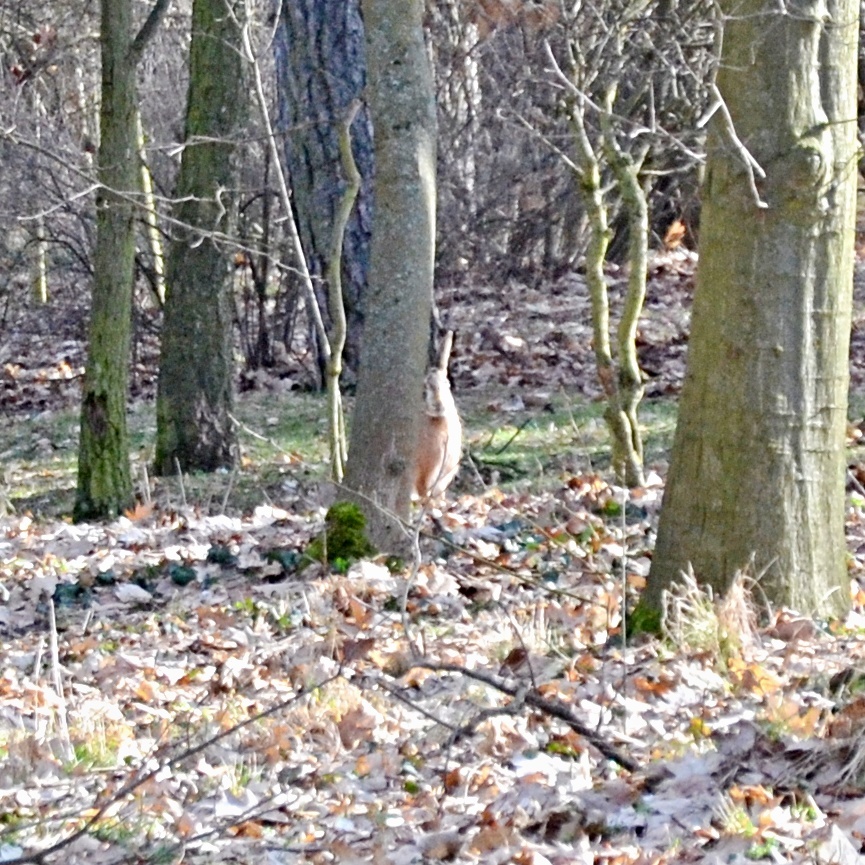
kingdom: Animalia
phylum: Chordata
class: Mammalia
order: Lagomorpha
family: Leporidae
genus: Lepus
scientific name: Lepus europaeus
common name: European hare
